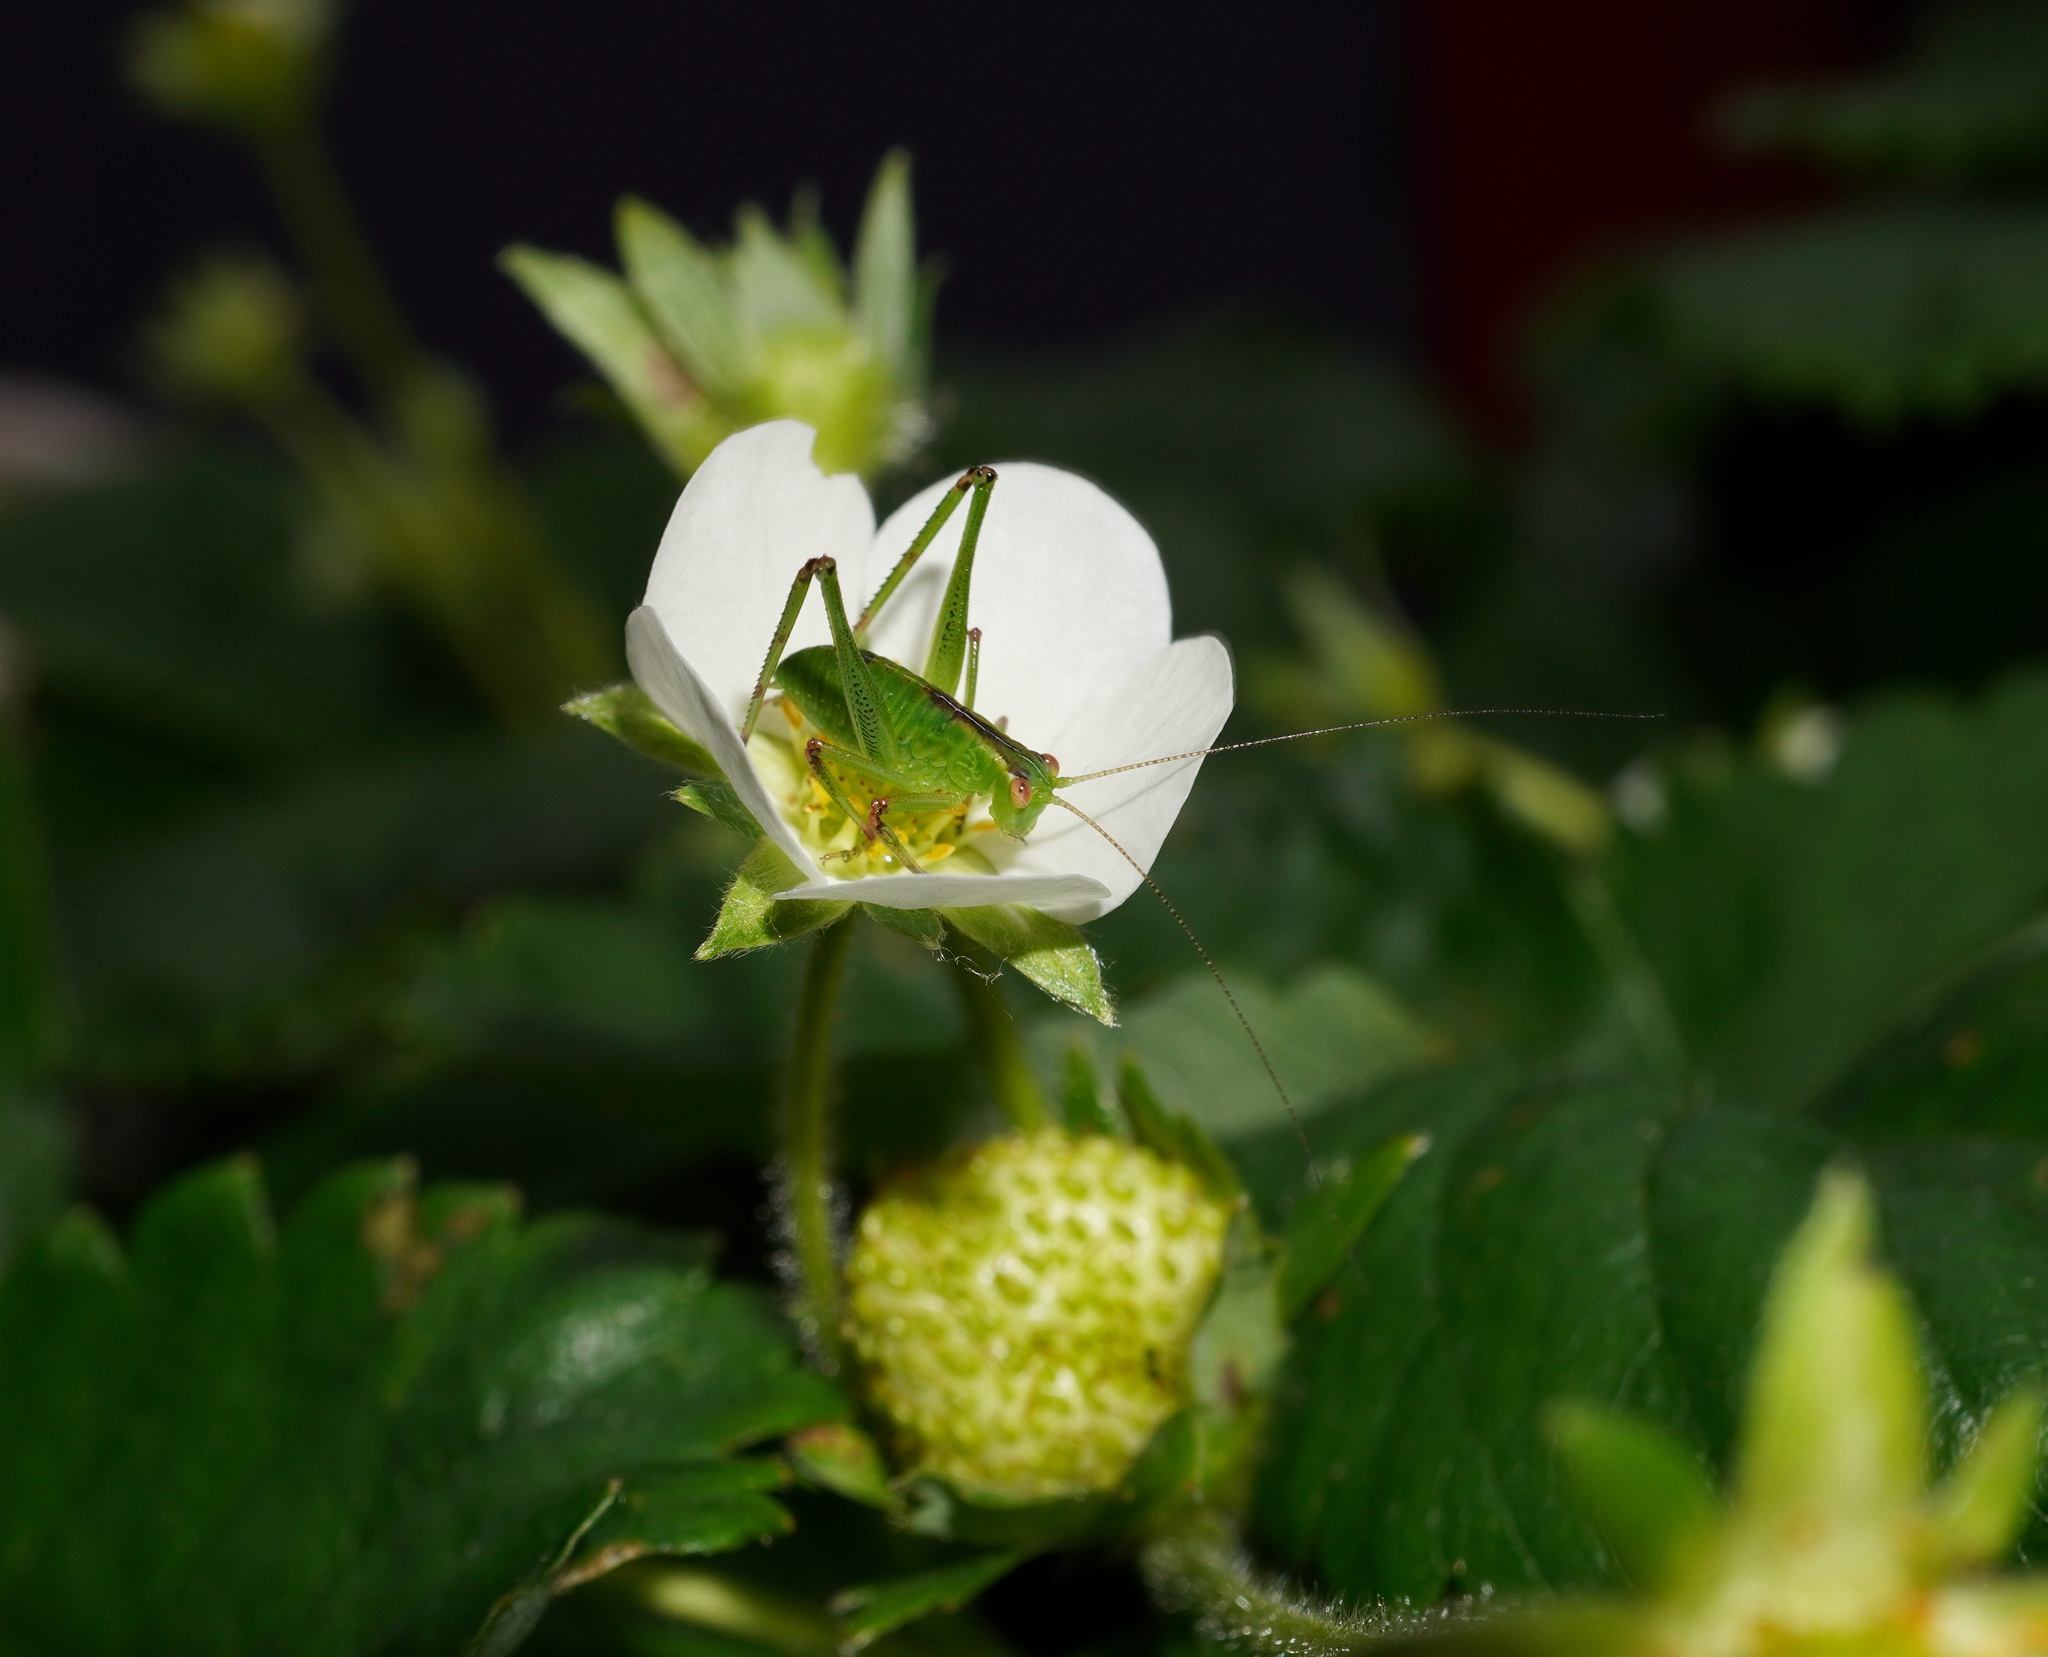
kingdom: Animalia
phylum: Arthropoda
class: Insecta
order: Orthoptera
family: Tettigoniidae
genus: Caedicia
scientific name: Caedicia simplex
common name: Common garden katydid
